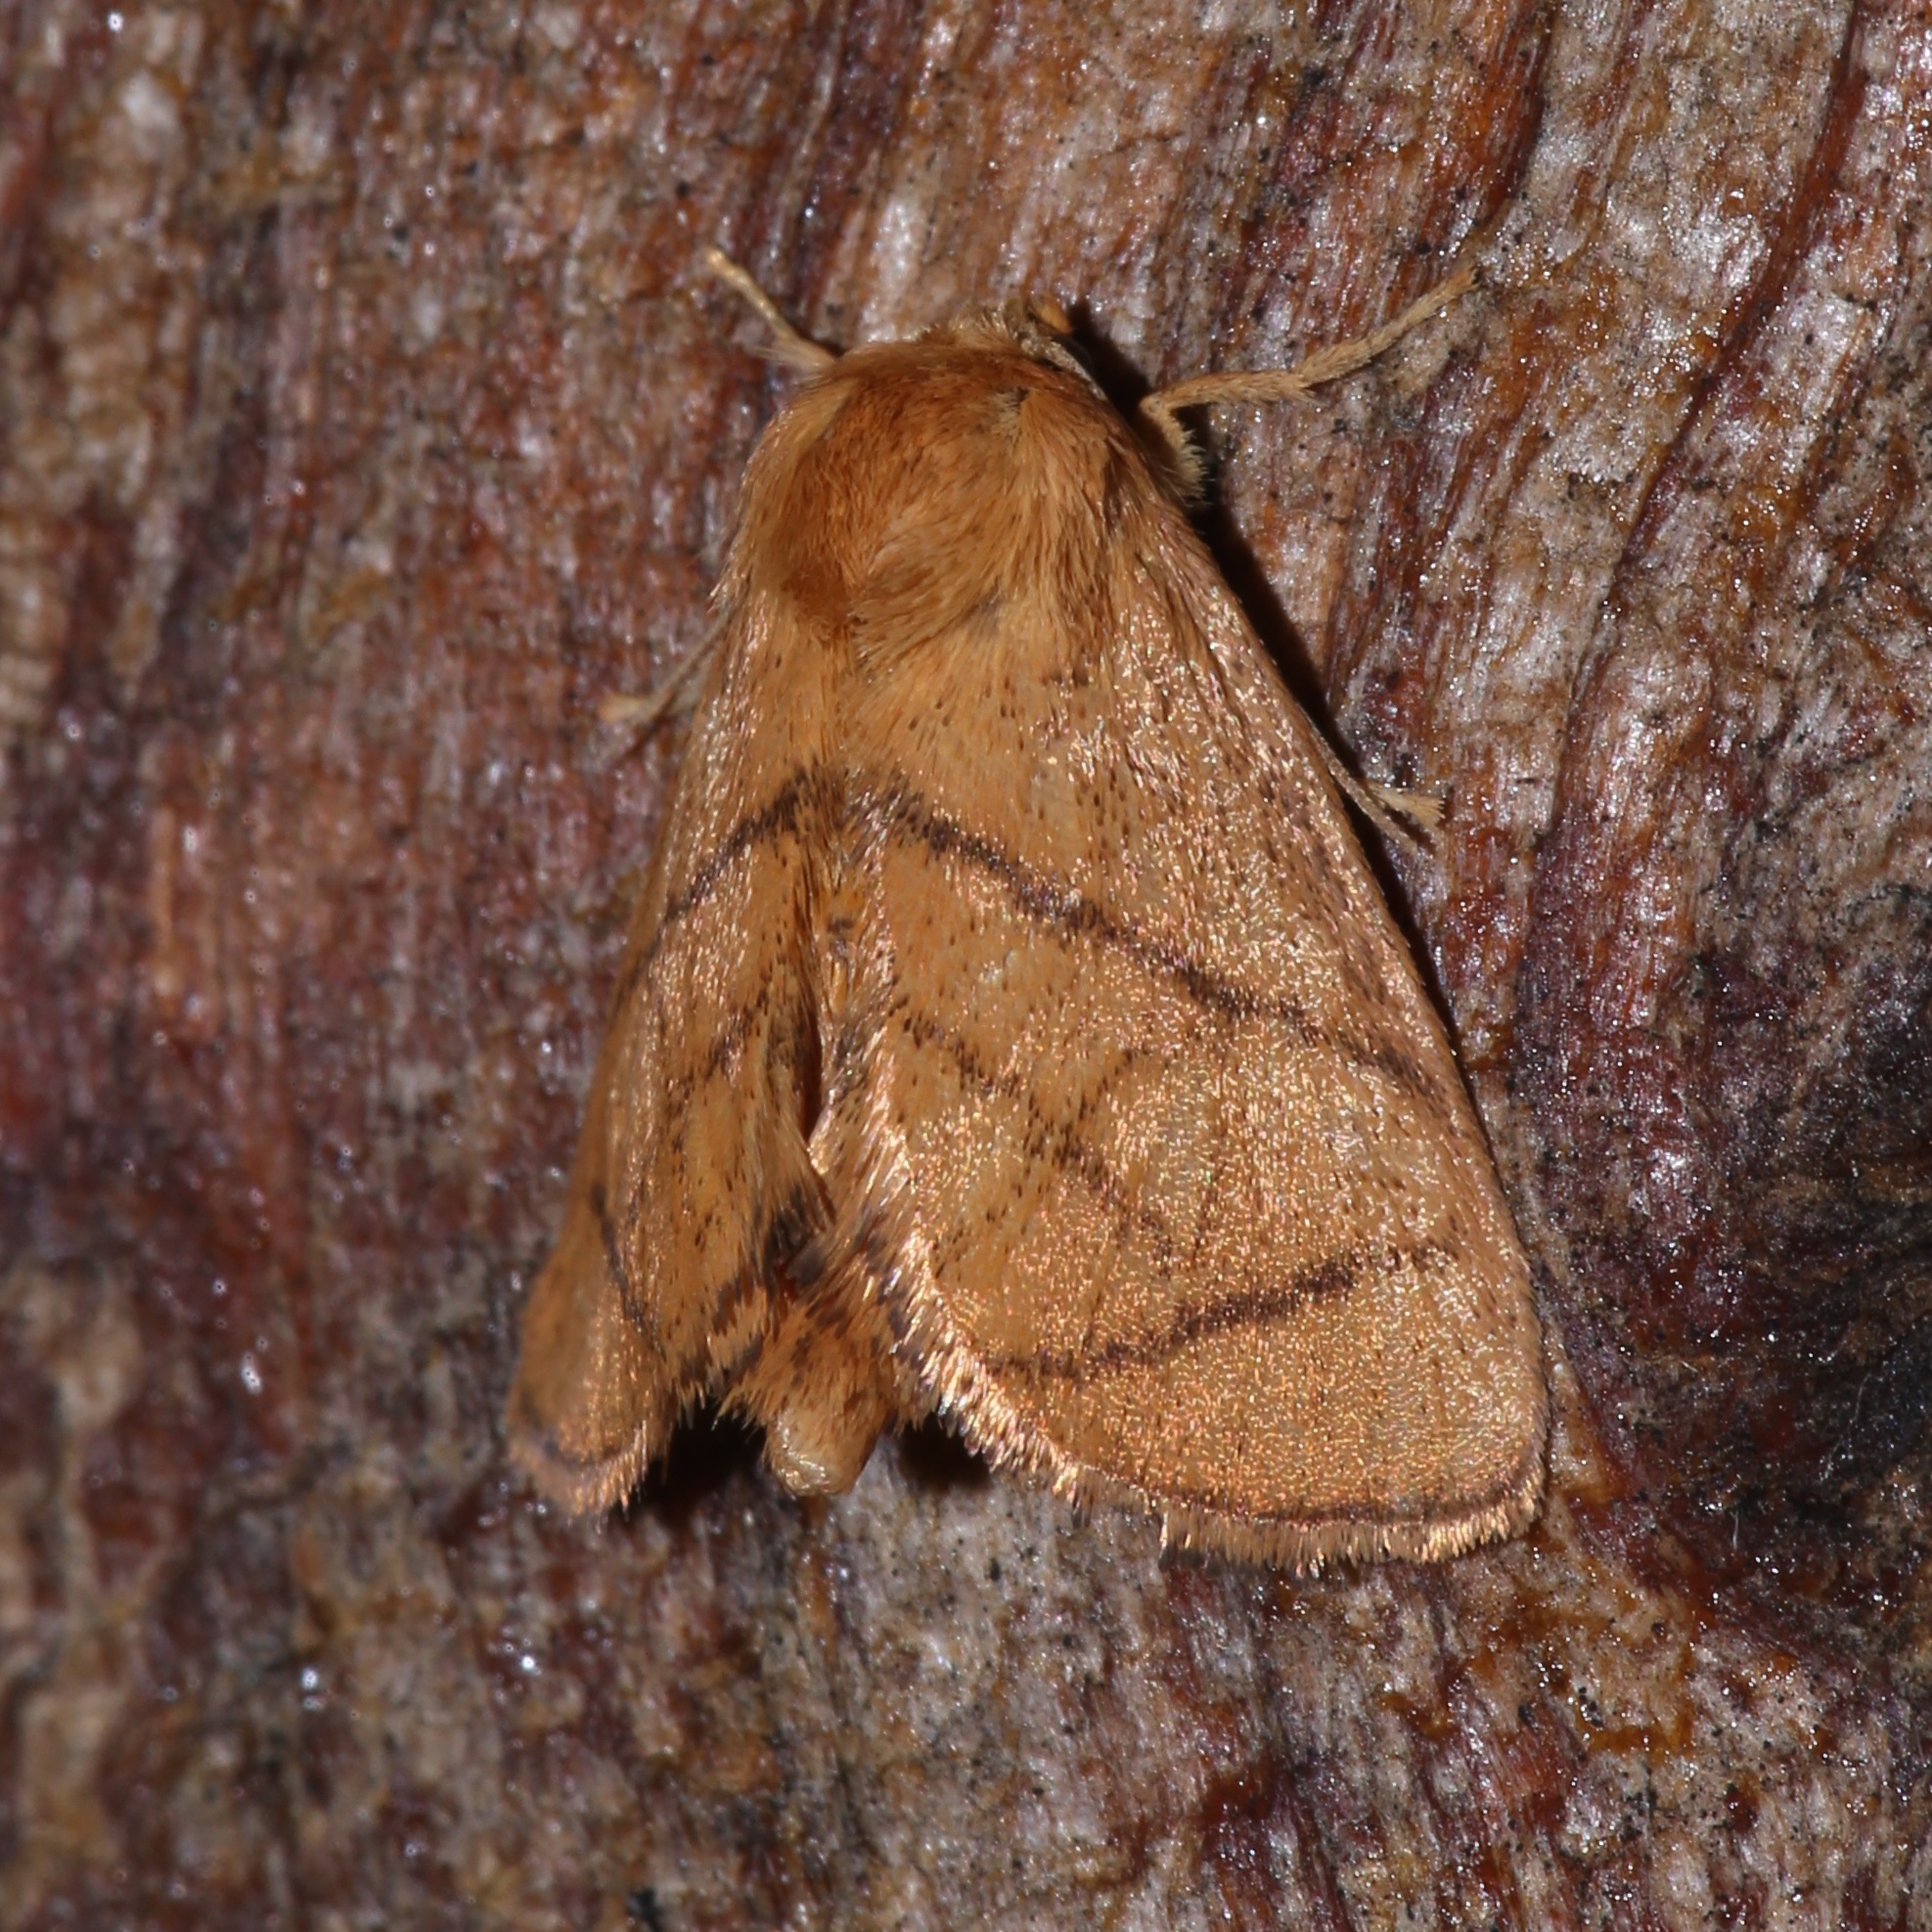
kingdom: Animalia
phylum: Arthropoda
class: Insecta
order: Lepidoptera
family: Limacodidae
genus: Apoda
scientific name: Apoda y-inversa
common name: Yellow-collared slug moth
